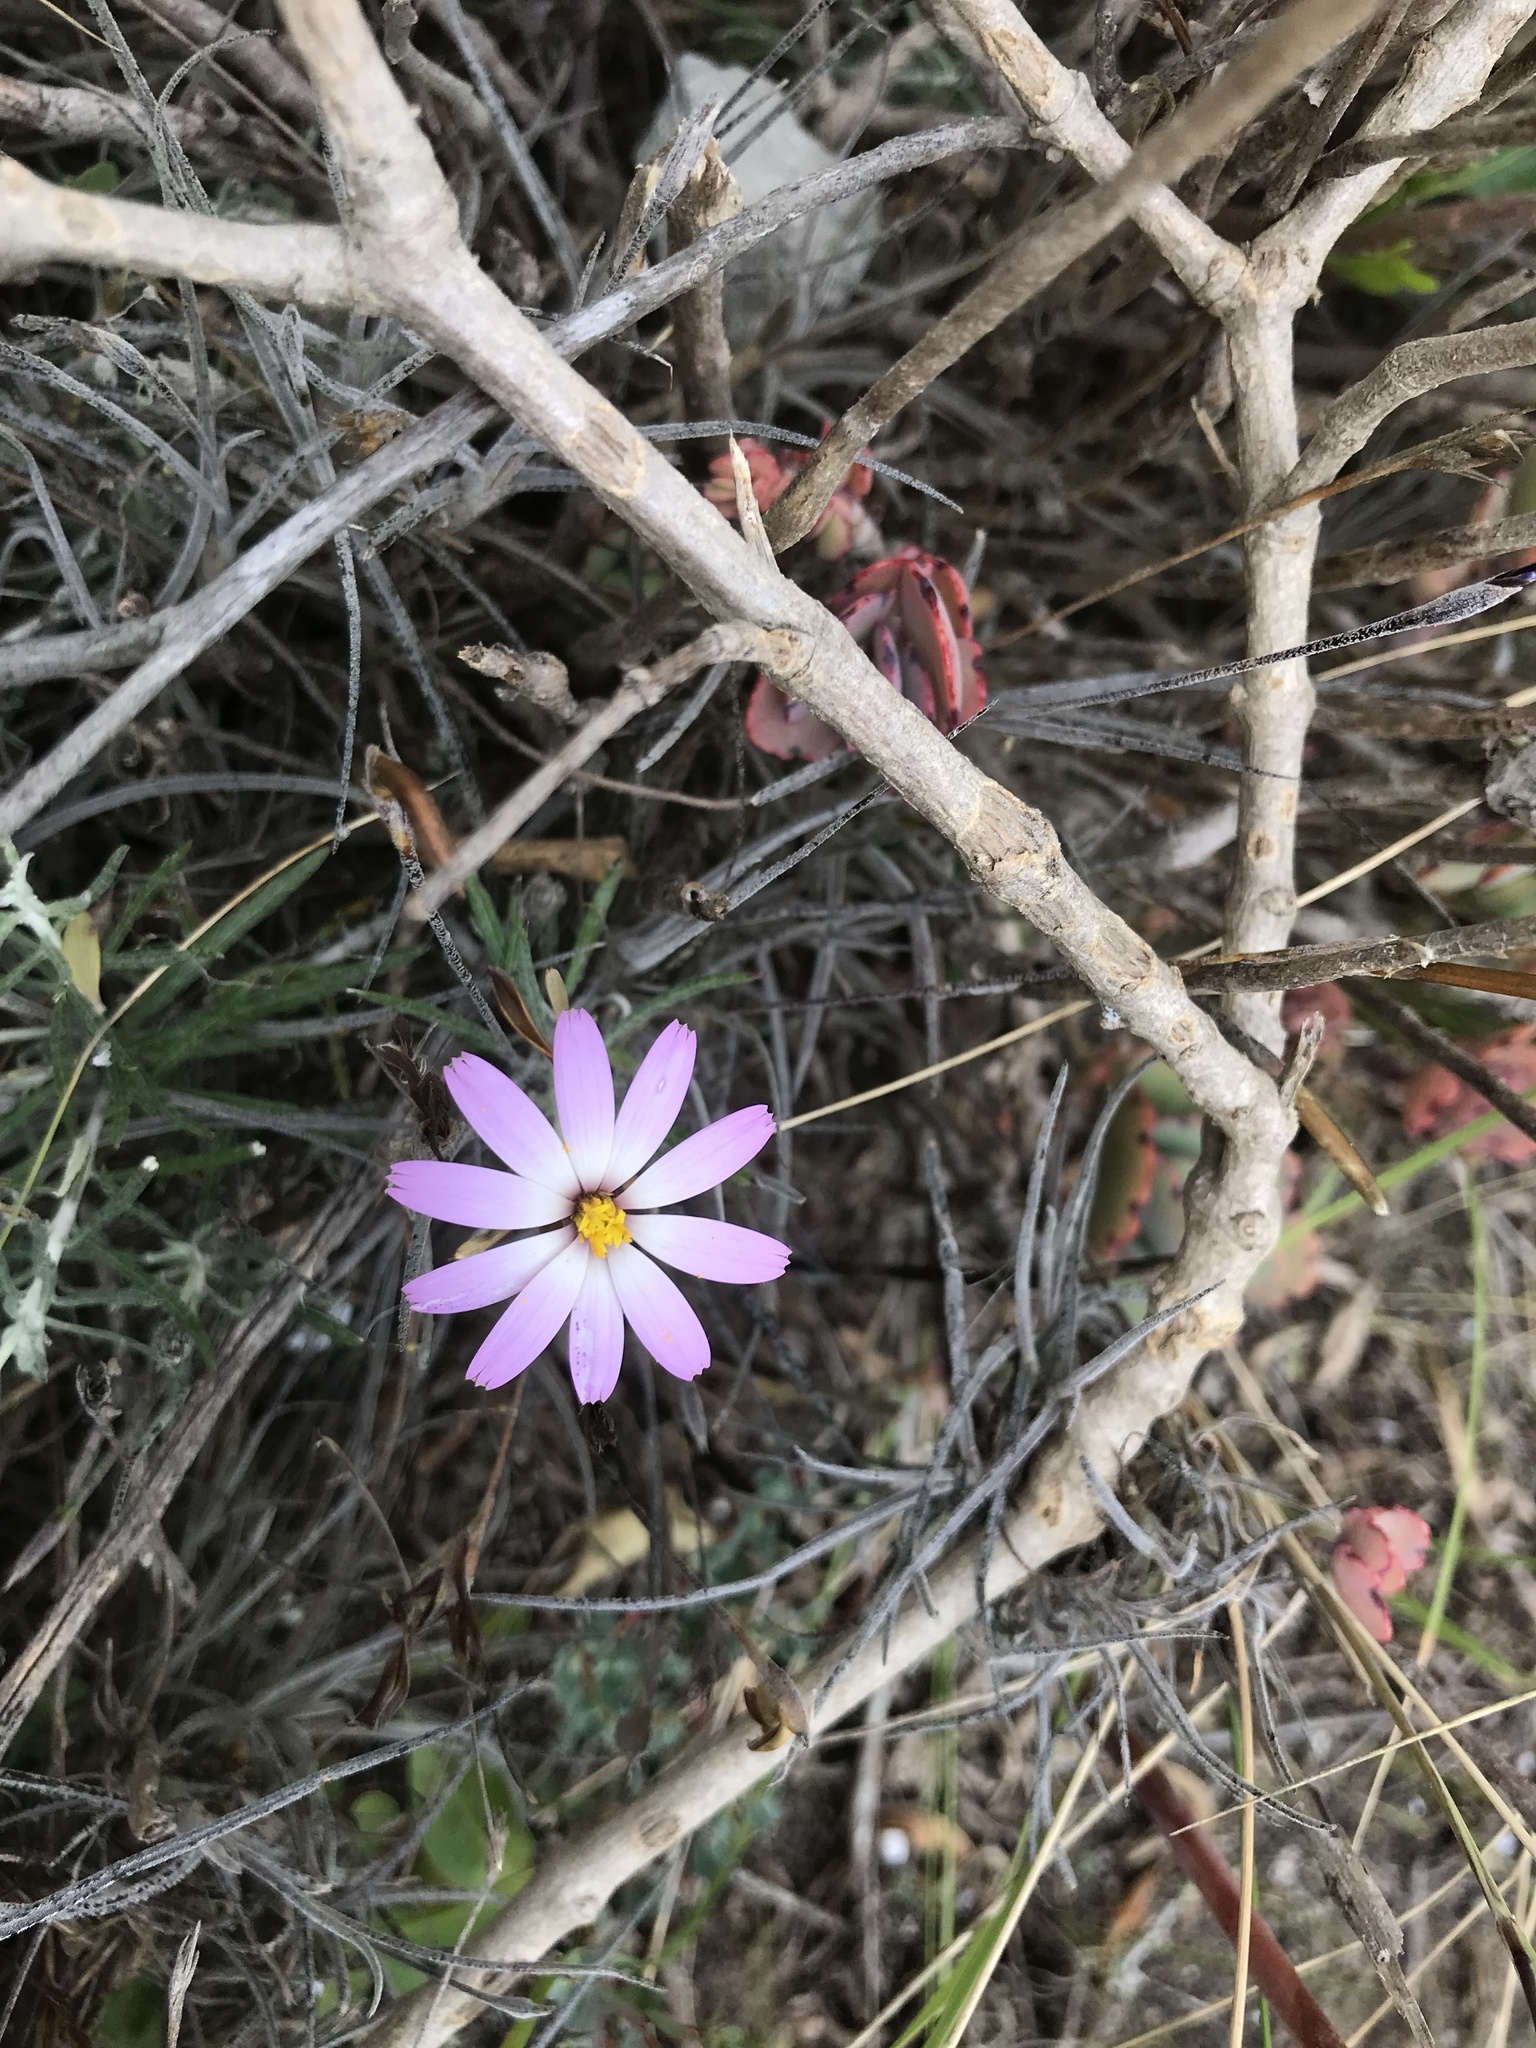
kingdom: Plantae
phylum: Tracheophyta
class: Magnoliopsida
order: Asterales
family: Asteraceae
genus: Onoseris
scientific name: Onoseris hyssopifolia
